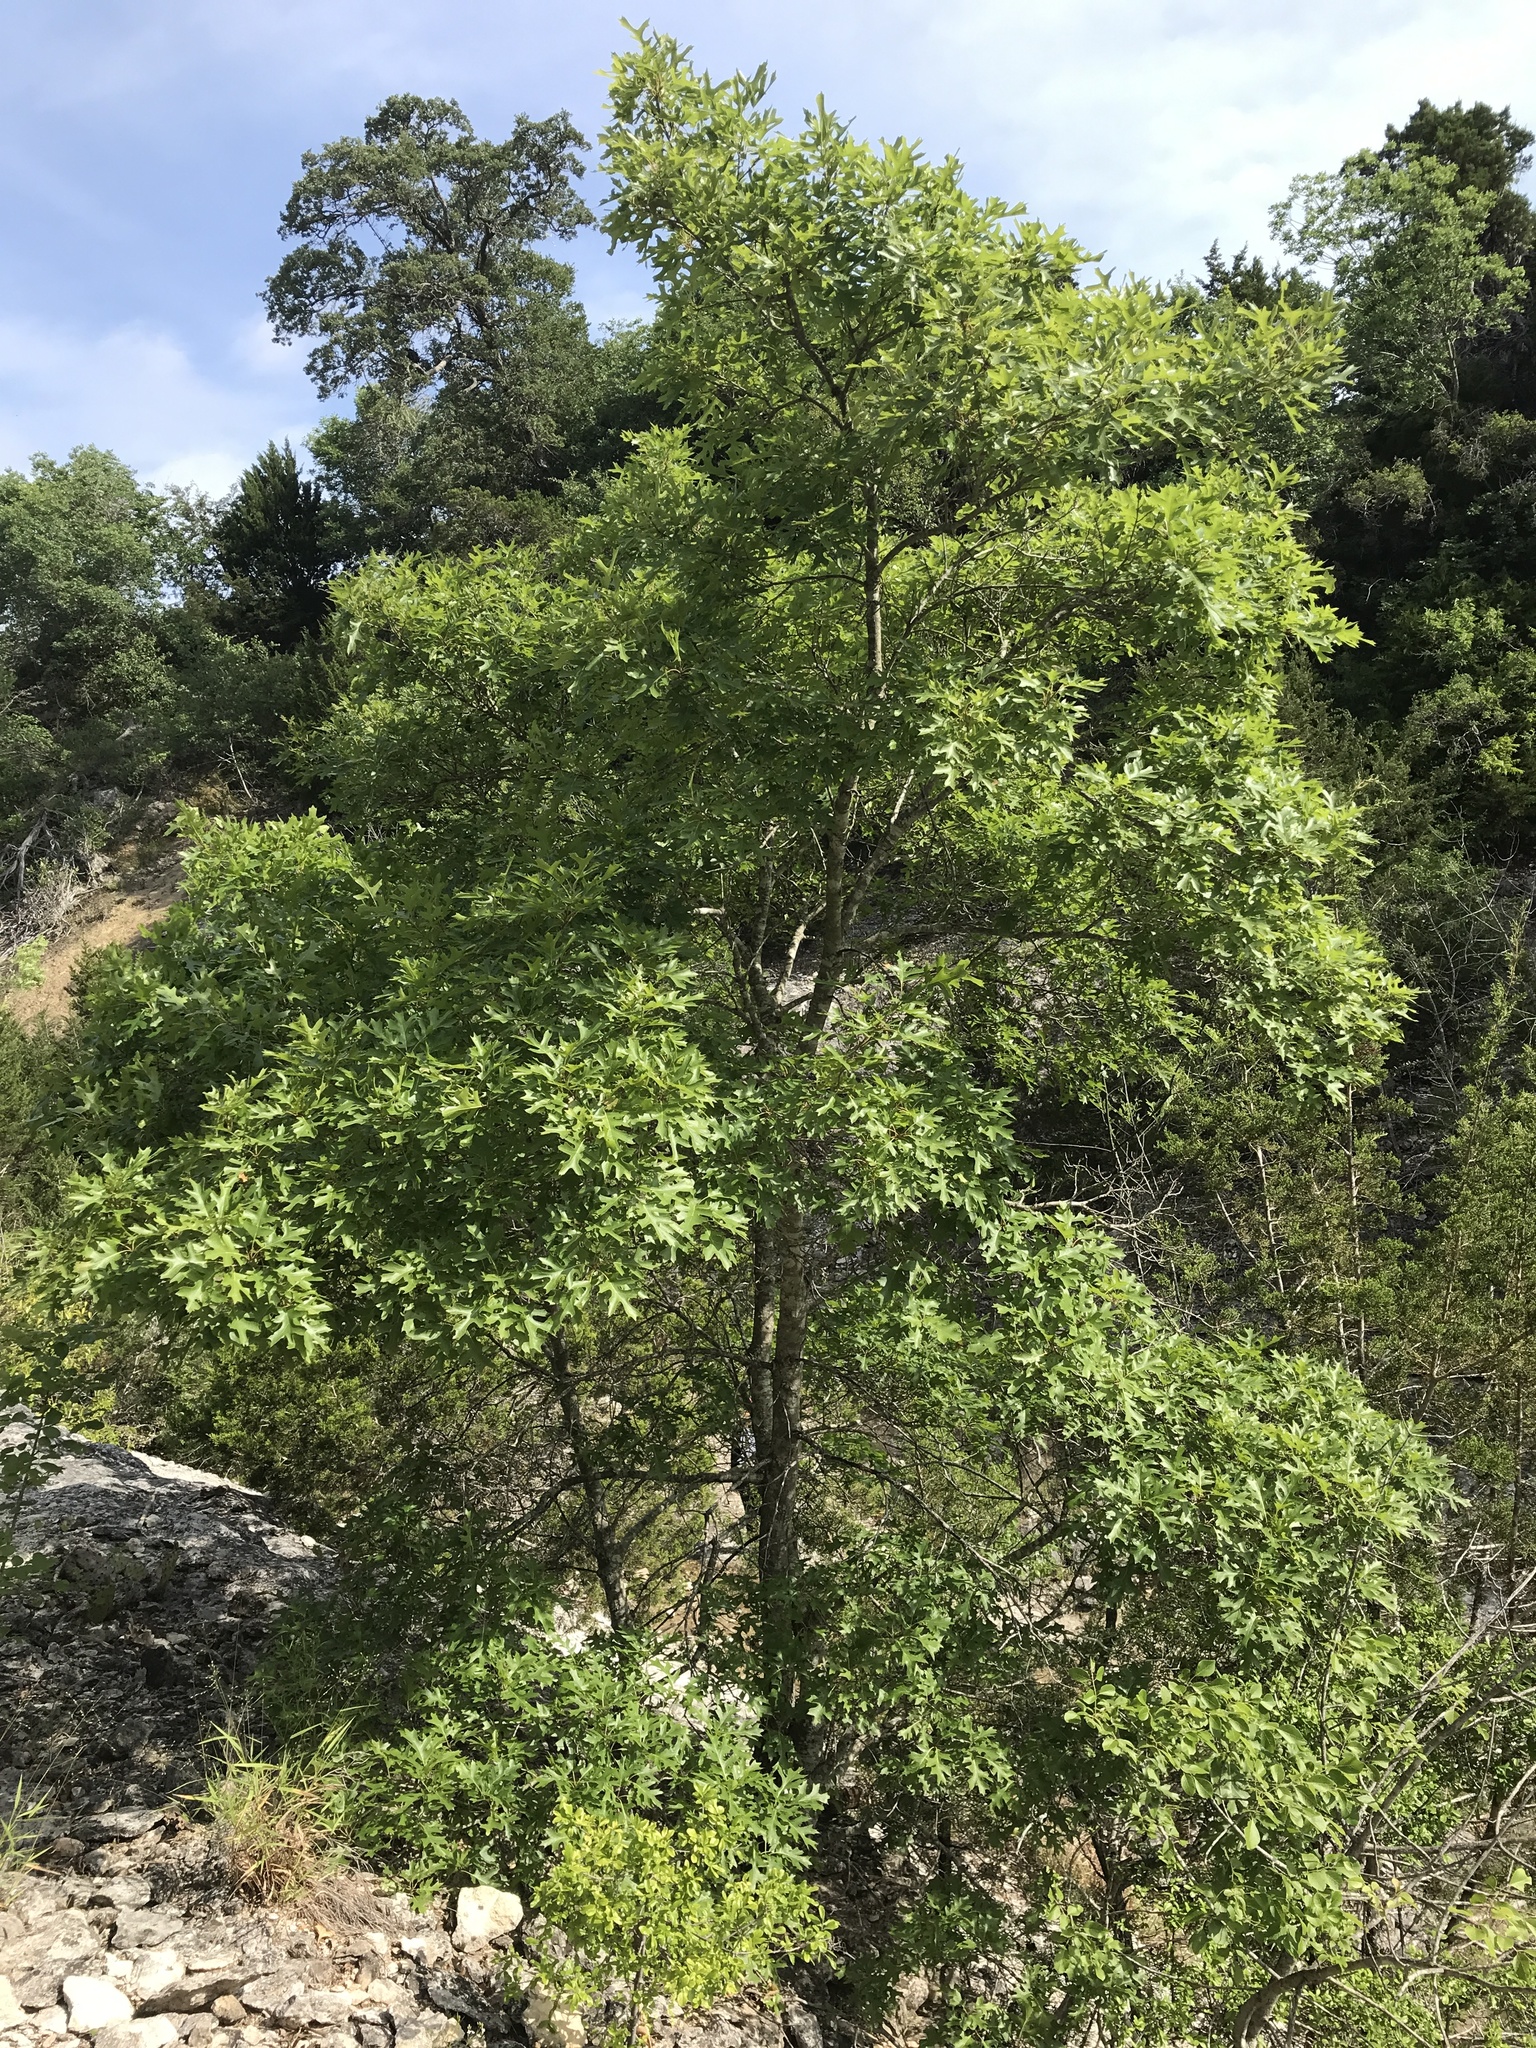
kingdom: Plantae
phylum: Tracheophyta
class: Magnoliopsida
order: Fagales
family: Fagaceae
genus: Quercus
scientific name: Quercus buckleyi
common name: Buckley oak
